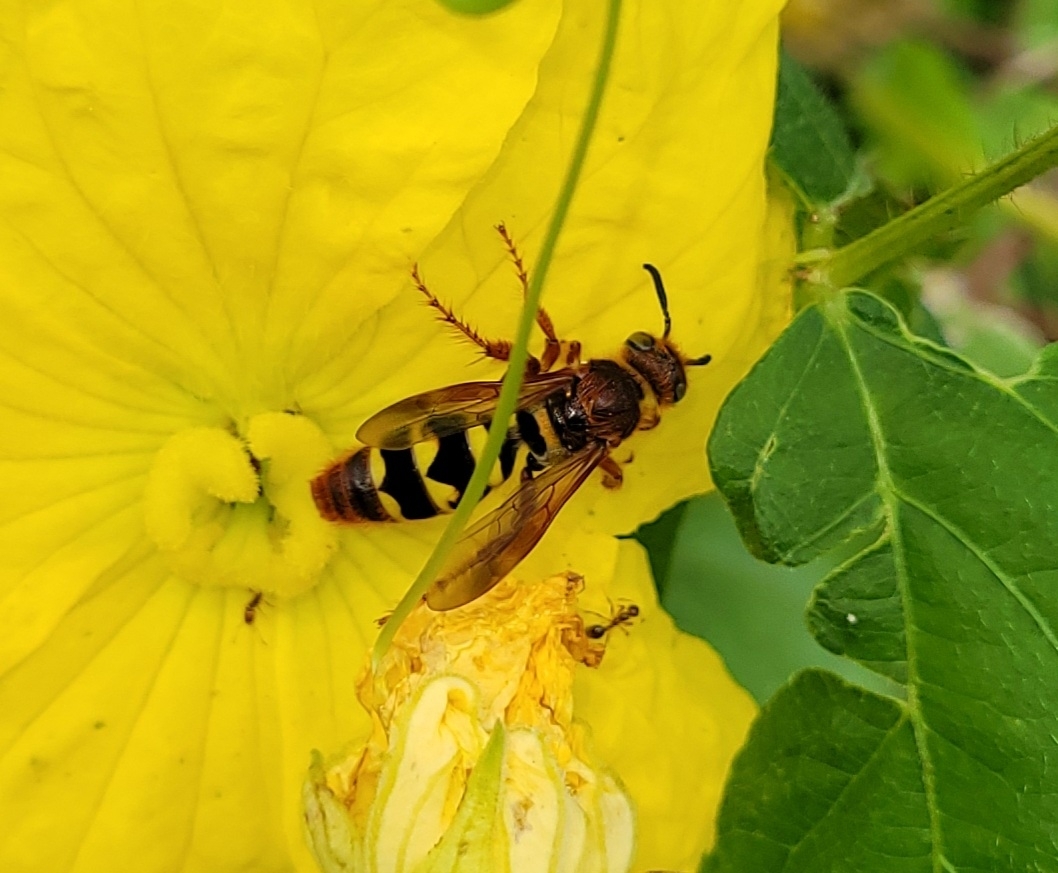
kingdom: Animalia
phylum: Arthropoda
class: Insecta
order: Hymenoptera
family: Scoliidae
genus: Xanthocampsomeris
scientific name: Xanthocampsomeris
